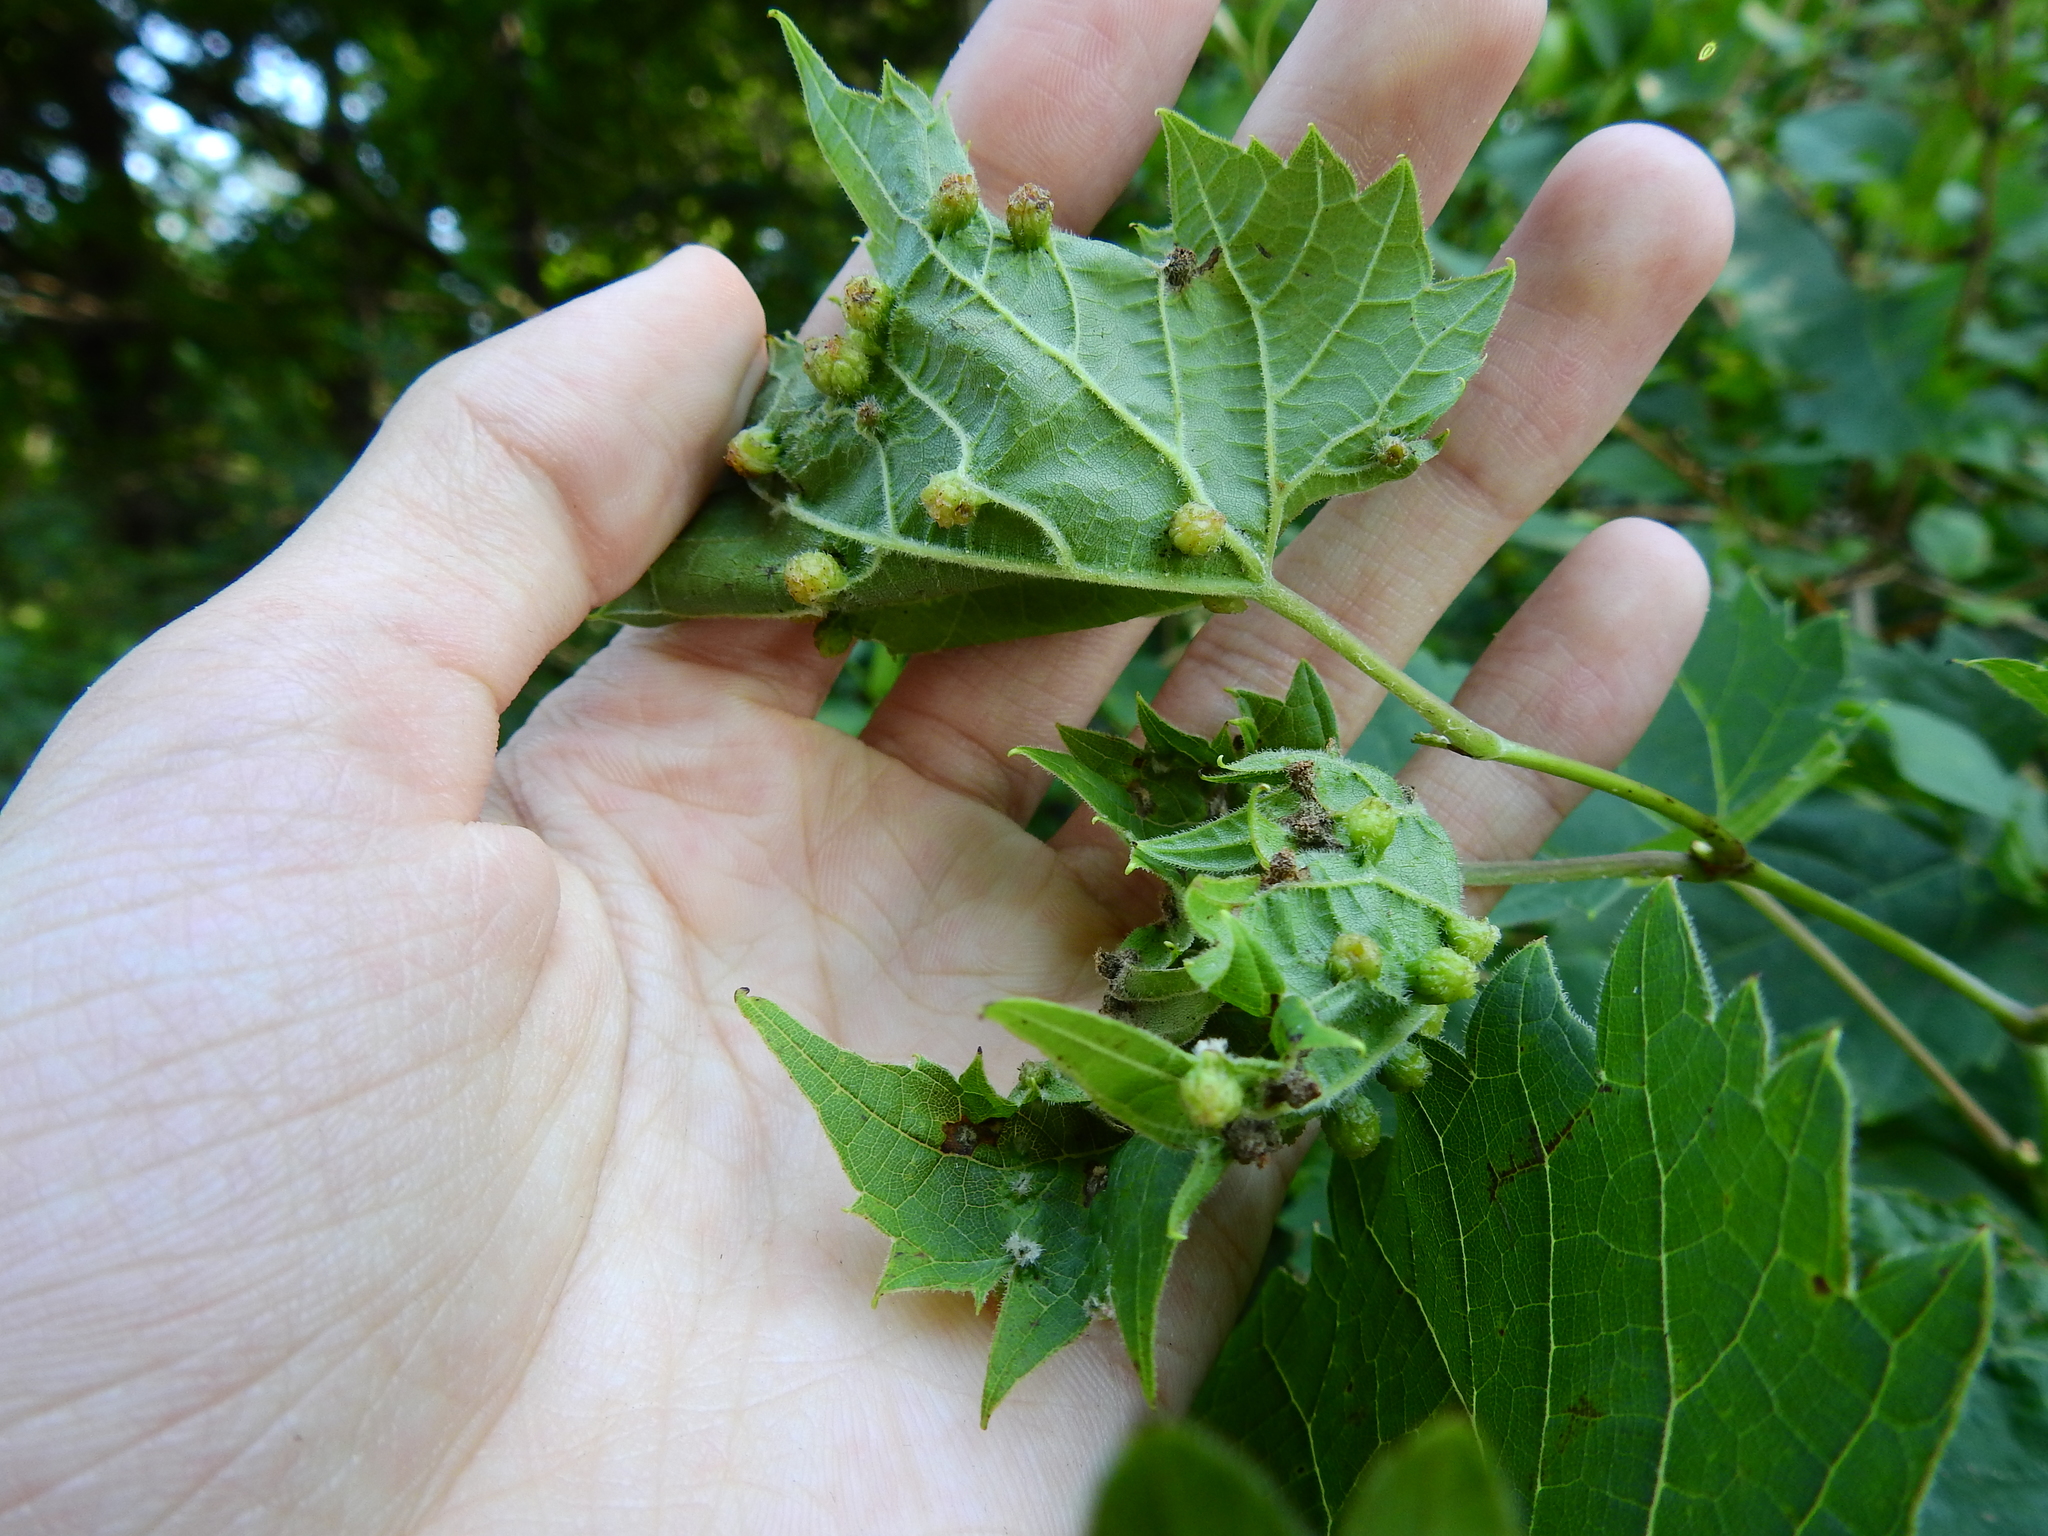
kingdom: Animalia
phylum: Arthropoda
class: Insecta
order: Hemiptera
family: Phylloxeridae
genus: Daktulosphaira
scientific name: Daktulosphaira vitifoliae
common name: Grape phylloxera
